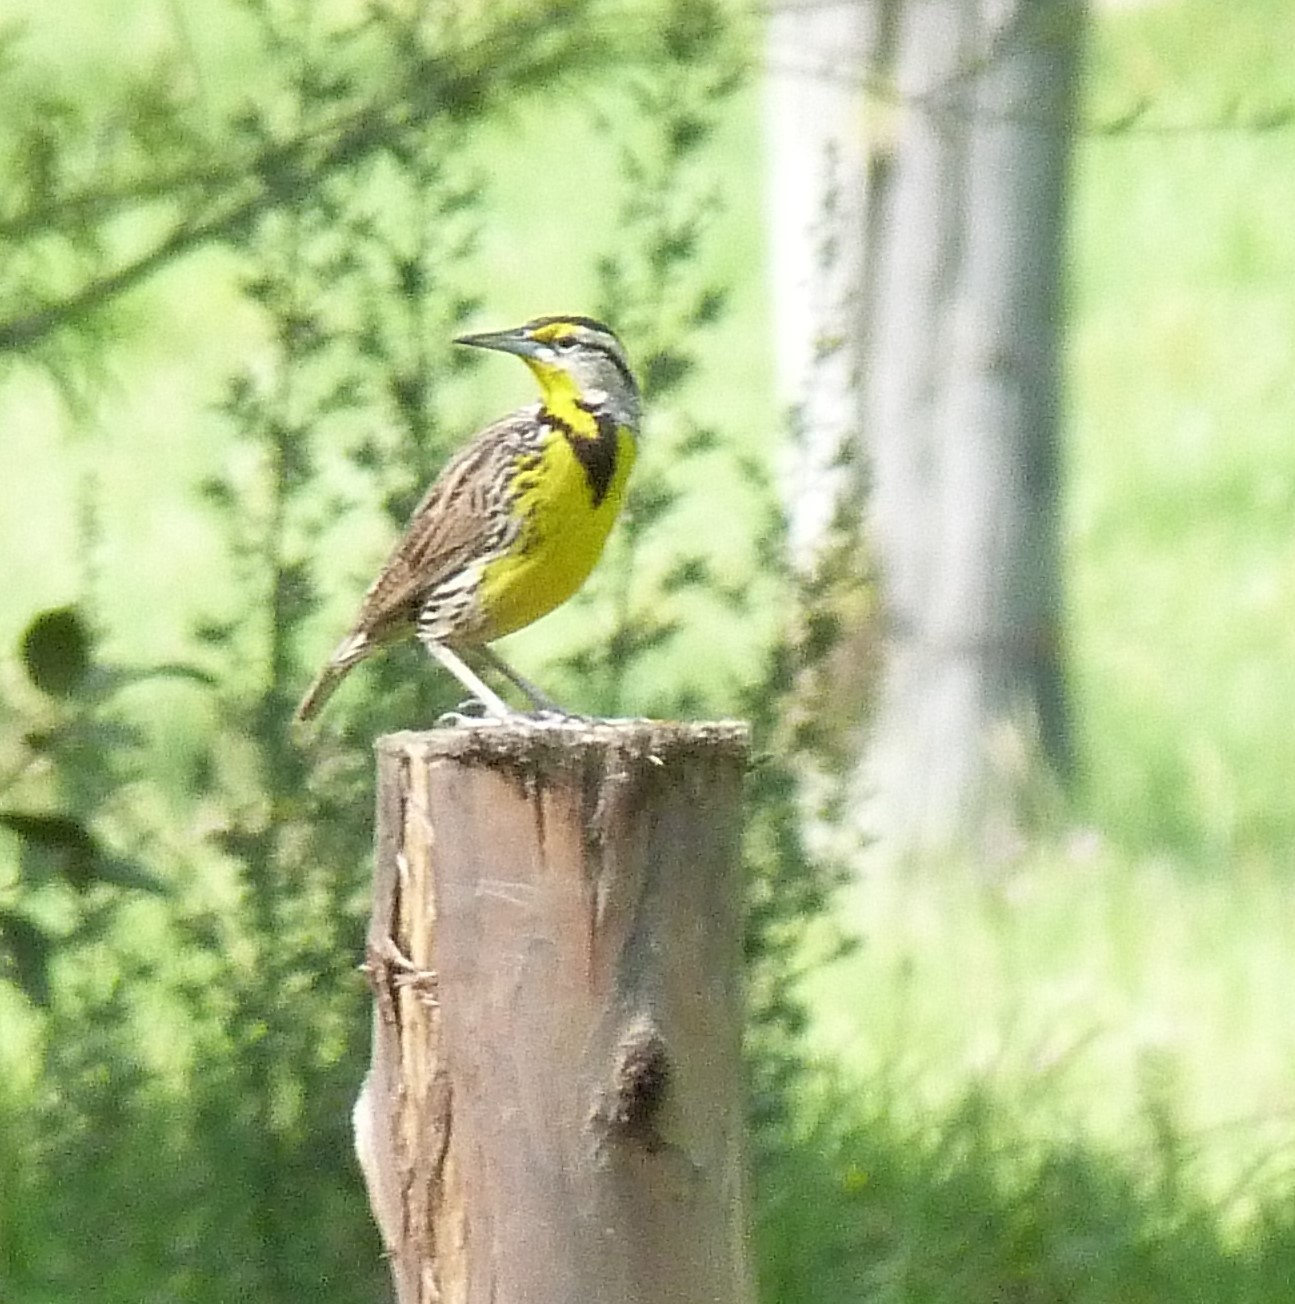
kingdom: Animalia
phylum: Chordata
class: Aves
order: Passeriformes
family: Icteridae
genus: Sturnella
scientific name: Sturnella magna
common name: Eastern meadowlark
